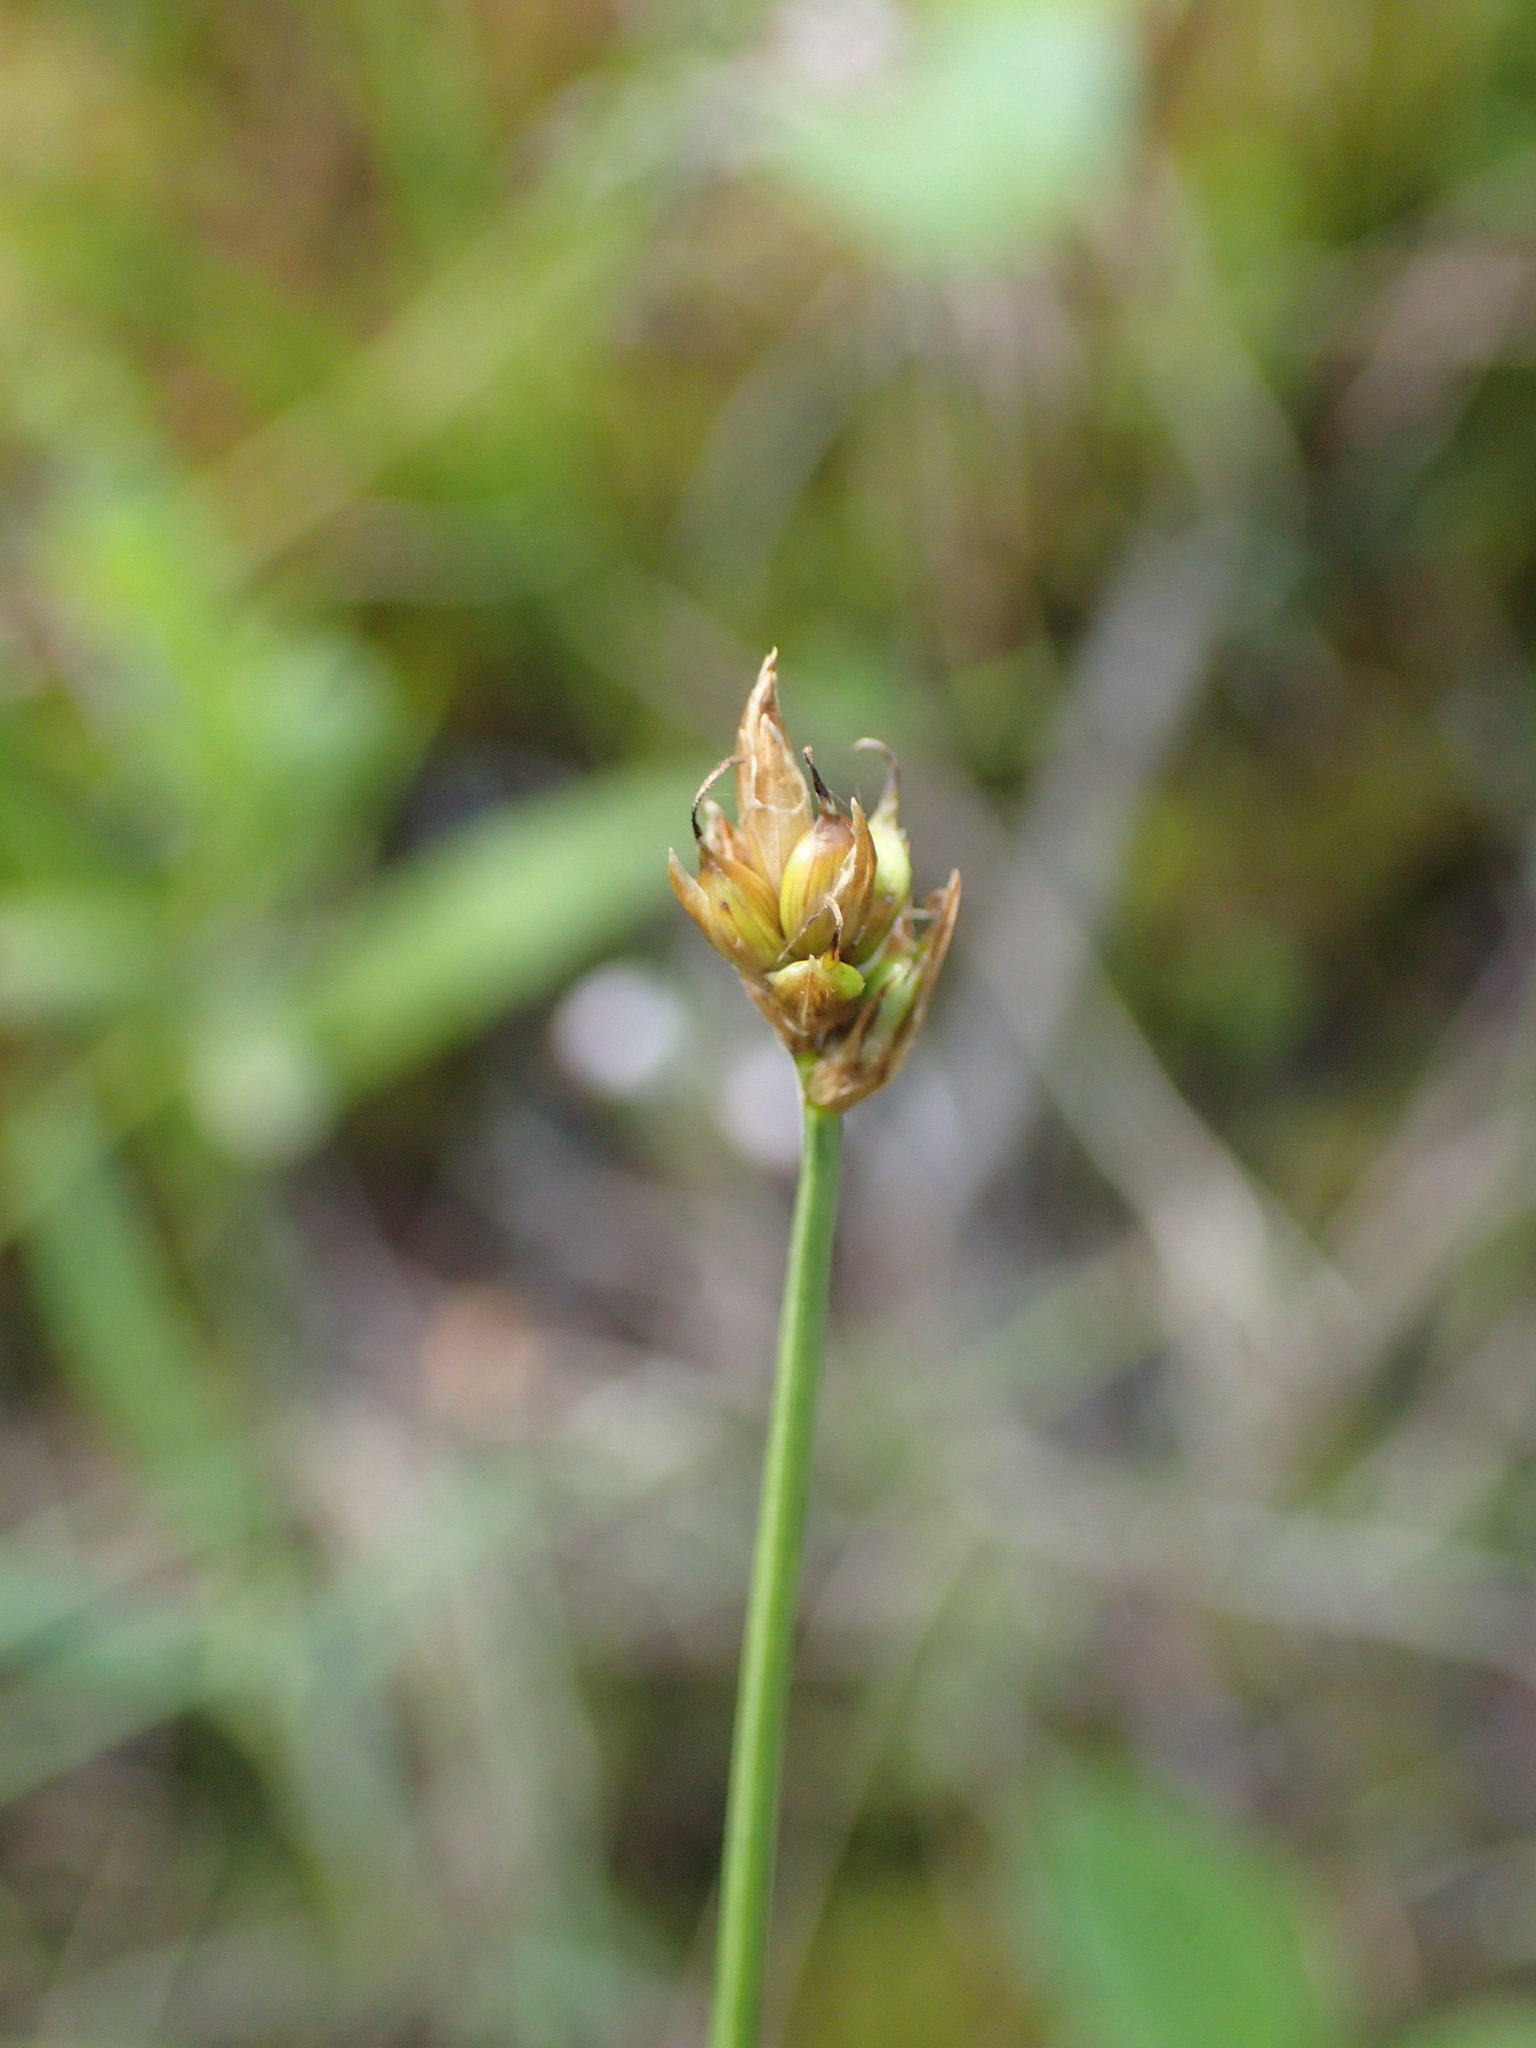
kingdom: Plantae
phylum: Tracheophyta
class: Liliopsida
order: Poales
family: Cyperaceae
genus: Carex
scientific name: Carex chordorrhiza
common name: String sedge
